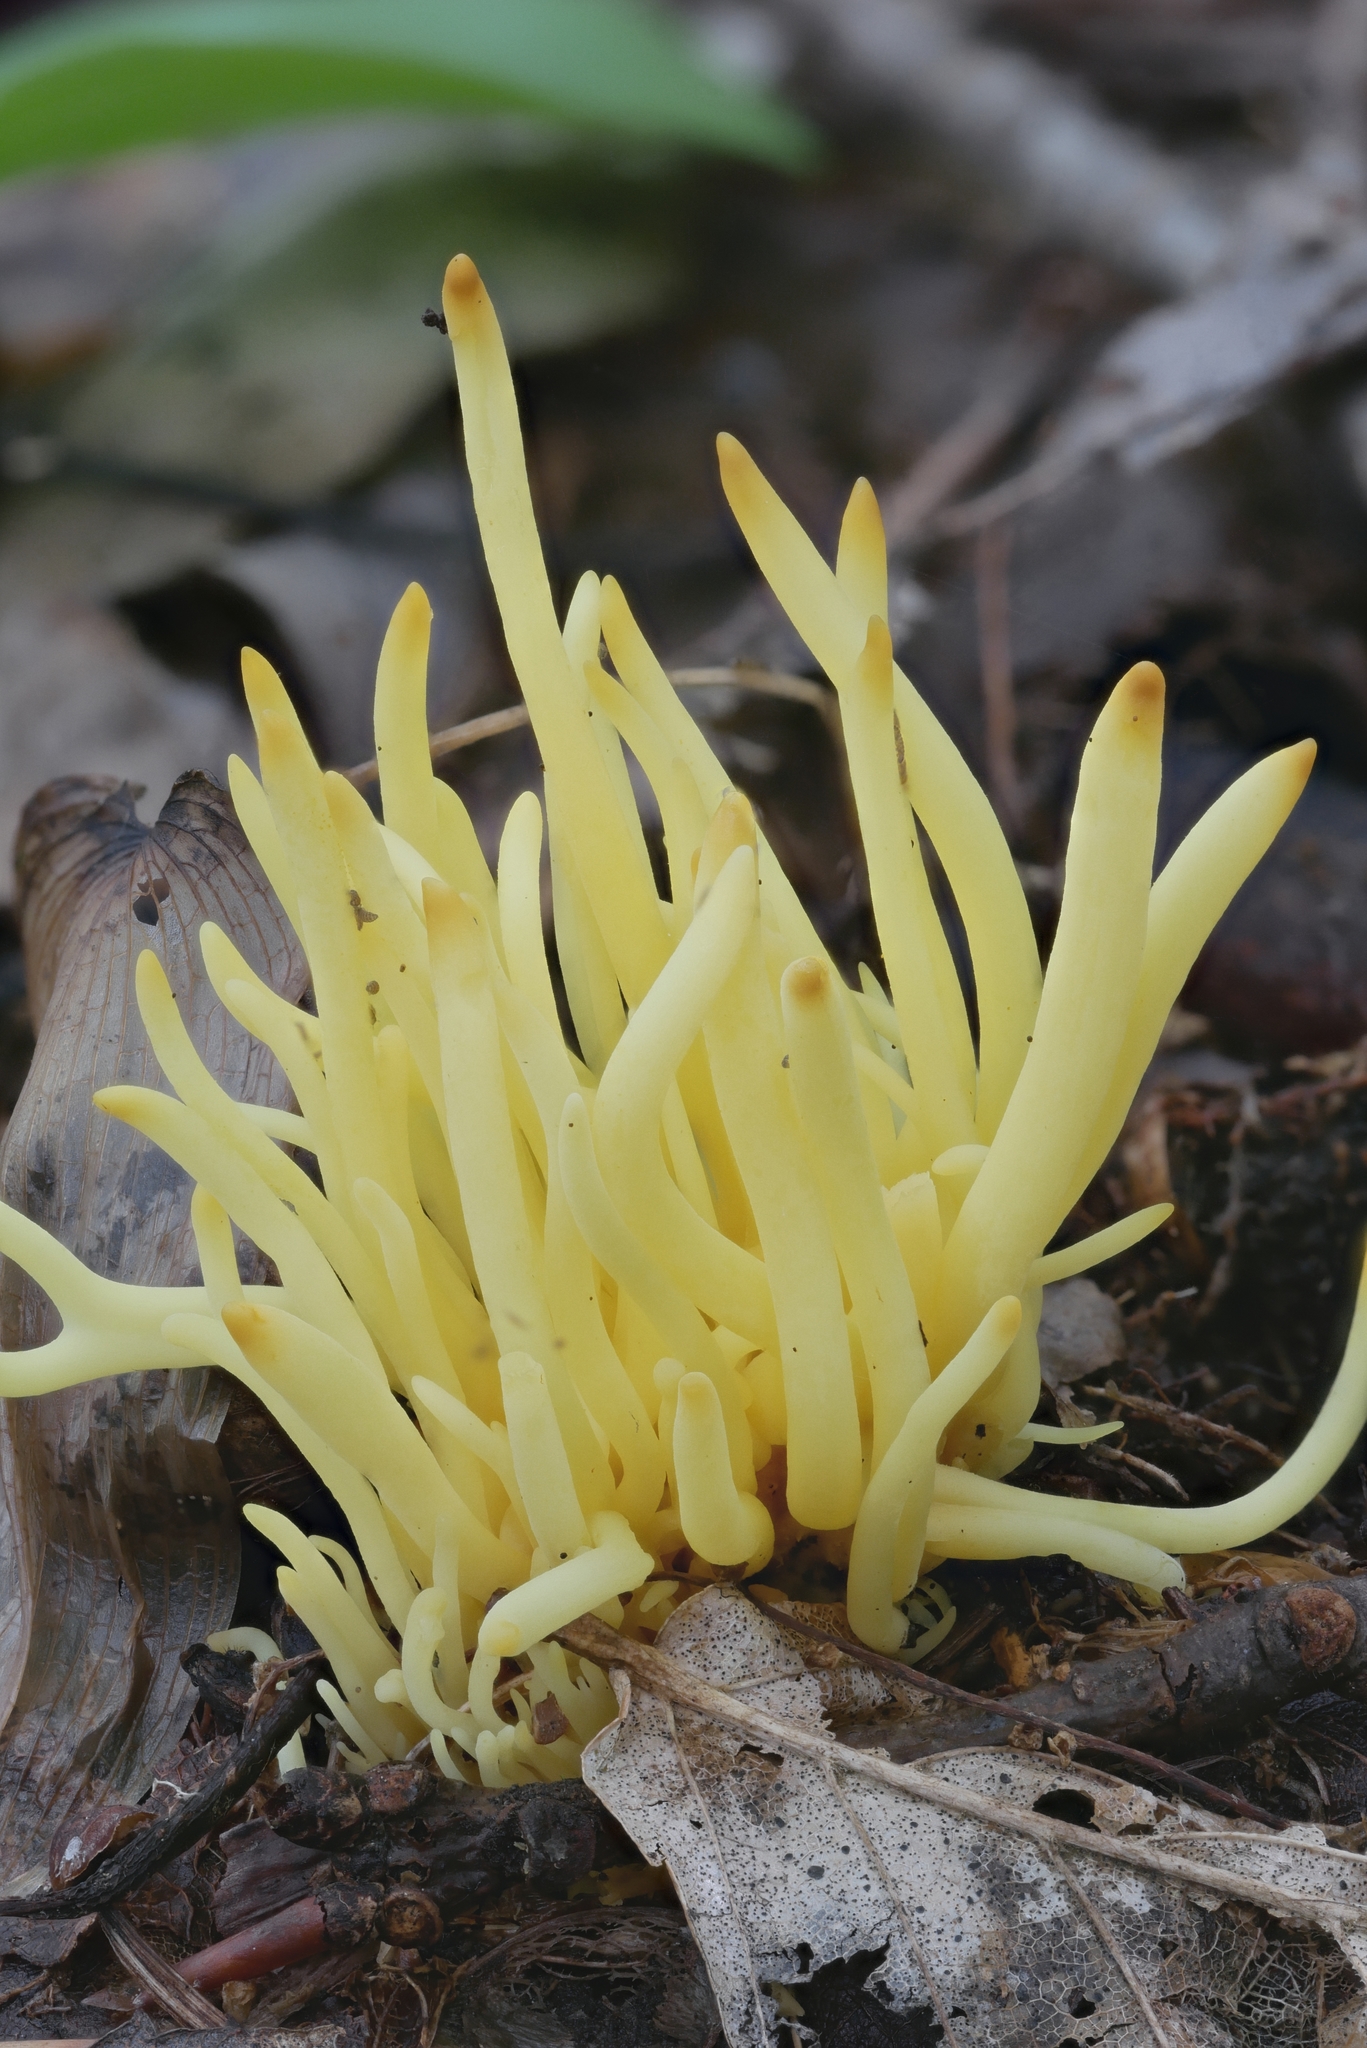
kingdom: Fungi
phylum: Basidiomycota
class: Agaricomycetes
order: Agaricales
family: Clavariaceae
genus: Clavulinopsis
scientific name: Clavulinopsis fusiformis
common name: Golden spindles
